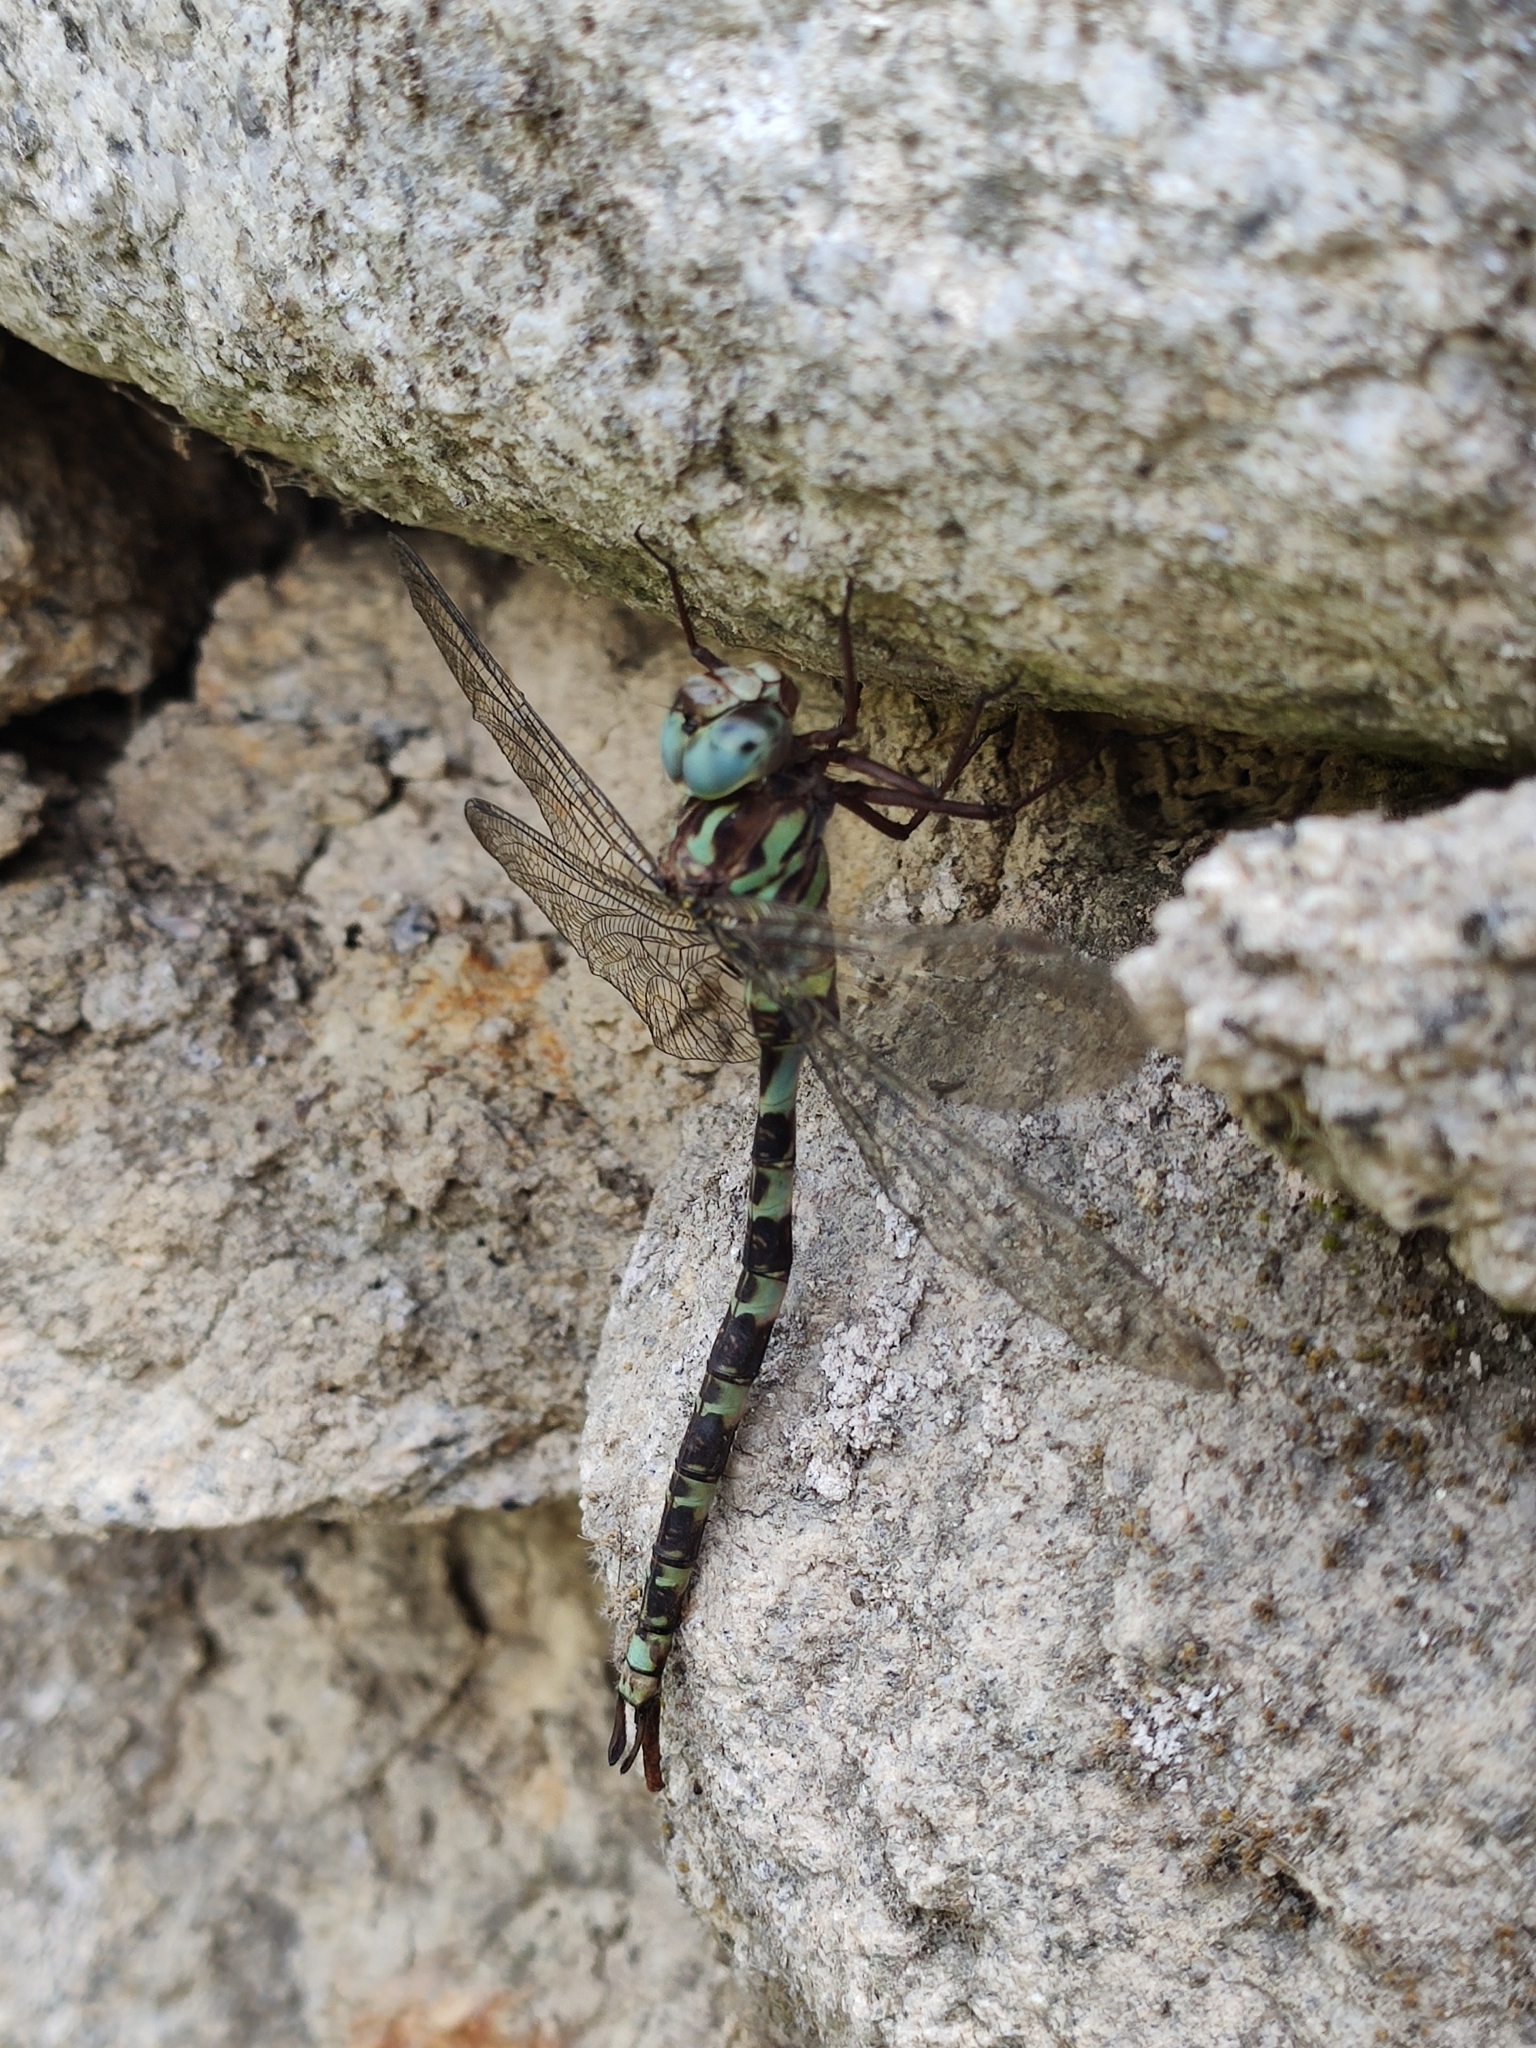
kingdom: Animalia
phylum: Arthropoda
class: Insecta
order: Odonata
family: Aeshnidae
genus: Boyeria
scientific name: Boyeria irene
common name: Western spectre
